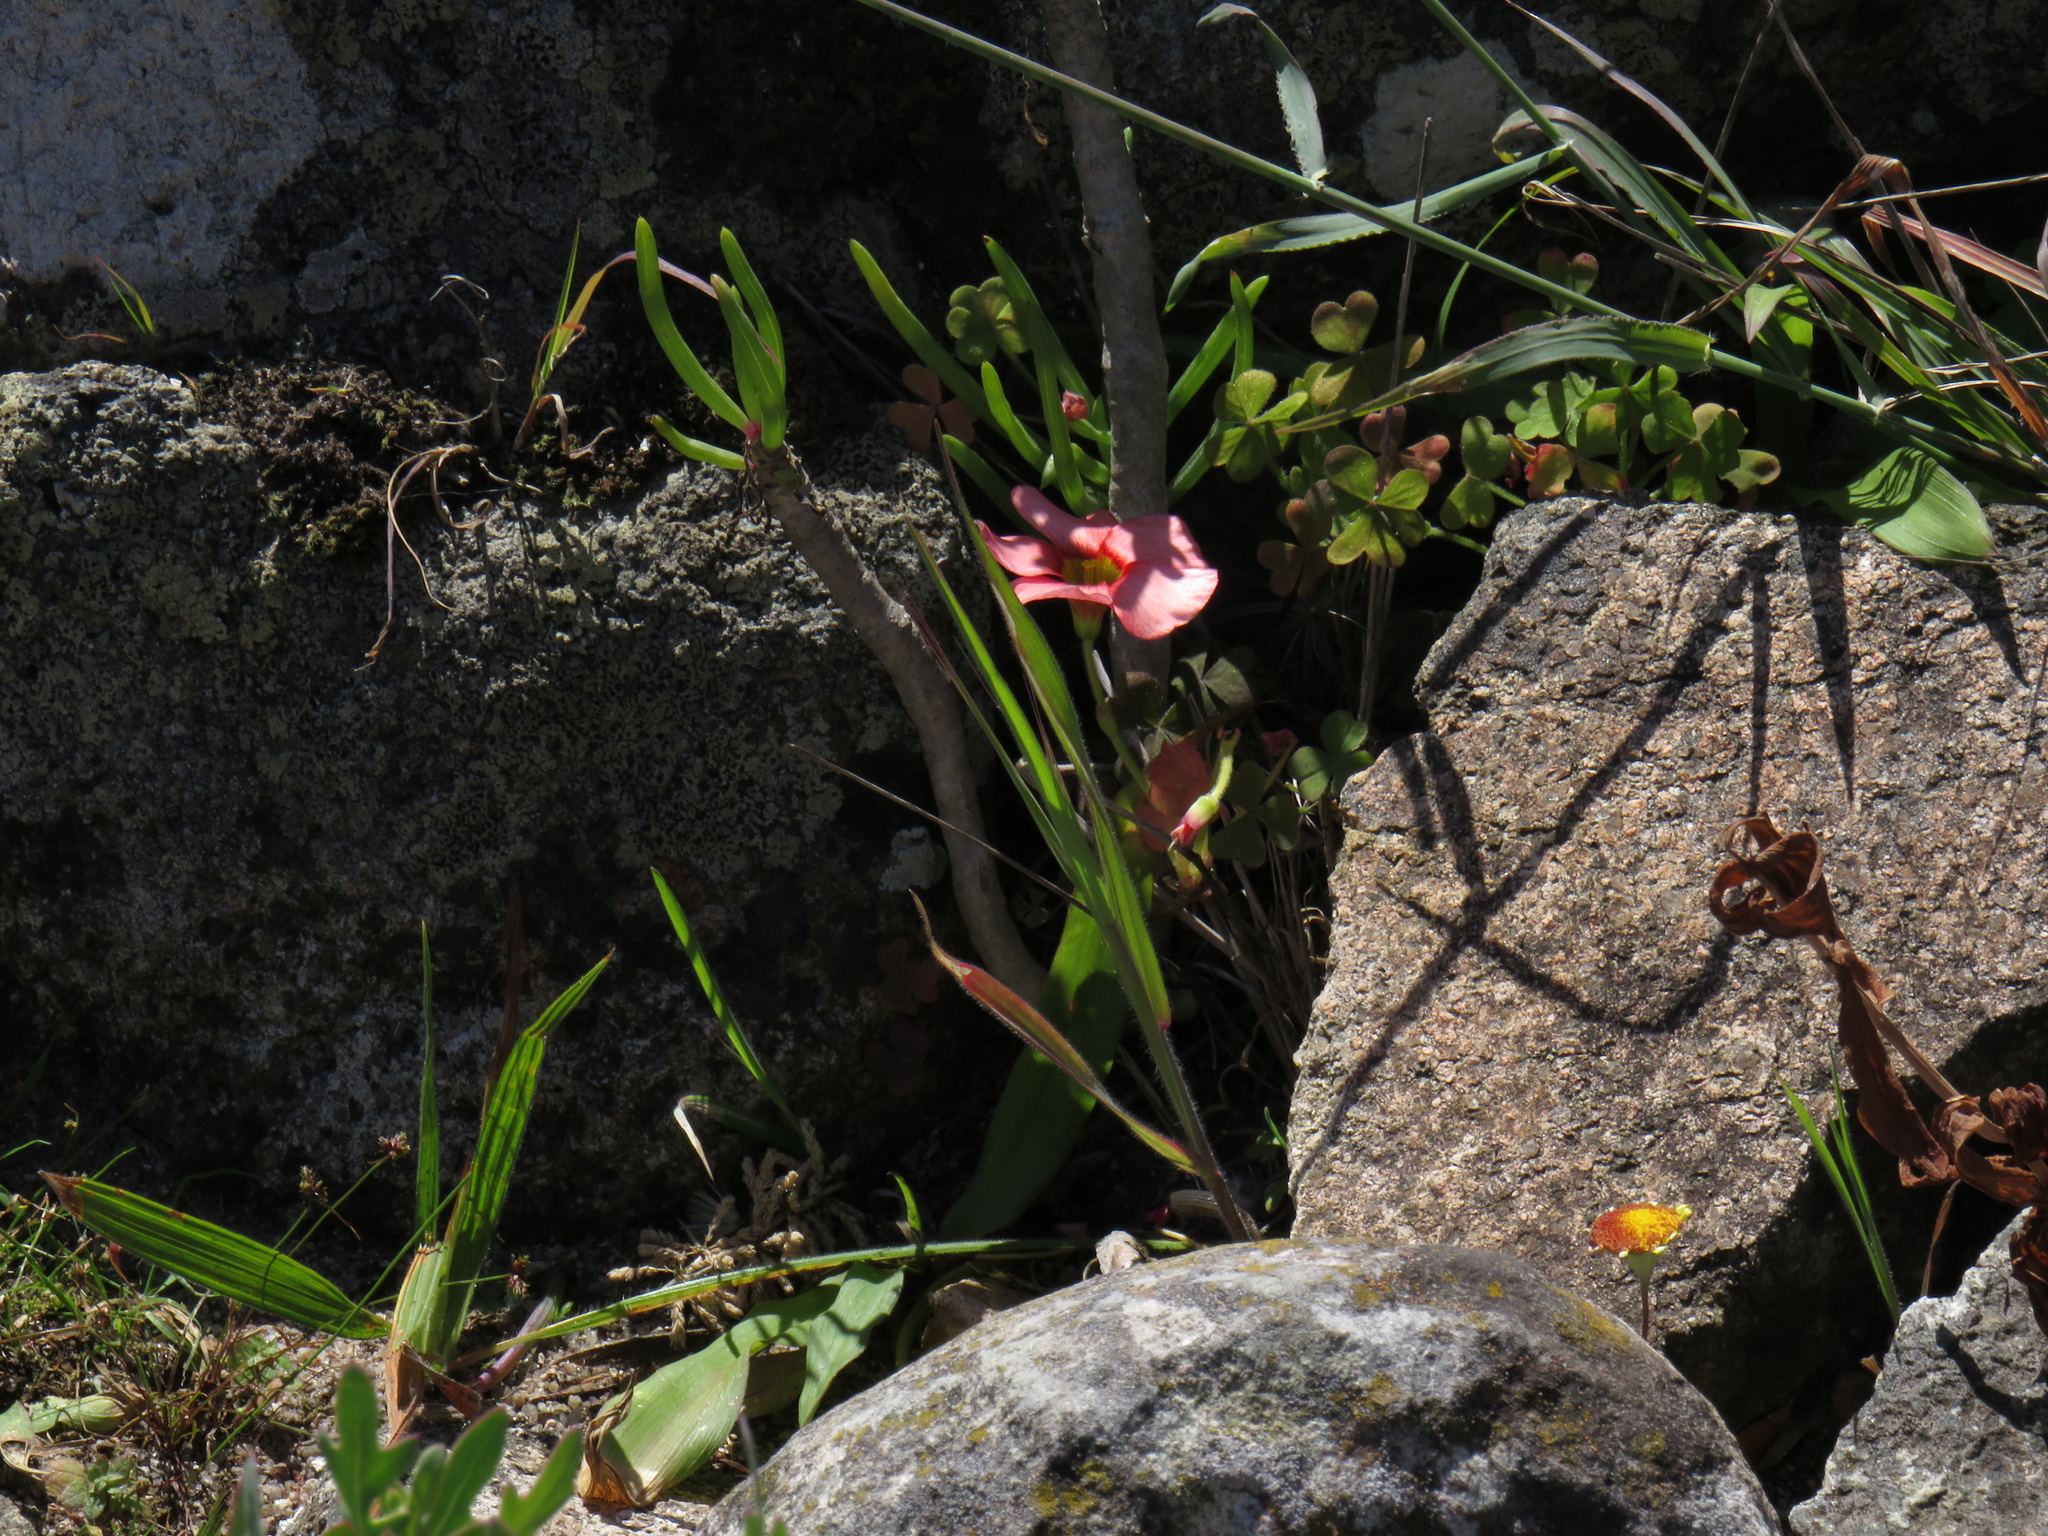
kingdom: Plantae
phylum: Tracheophyta
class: Magnoliopsida
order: Oxalidales
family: Oxalidaceae
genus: Oxalis
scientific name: Oxalis obtusa
